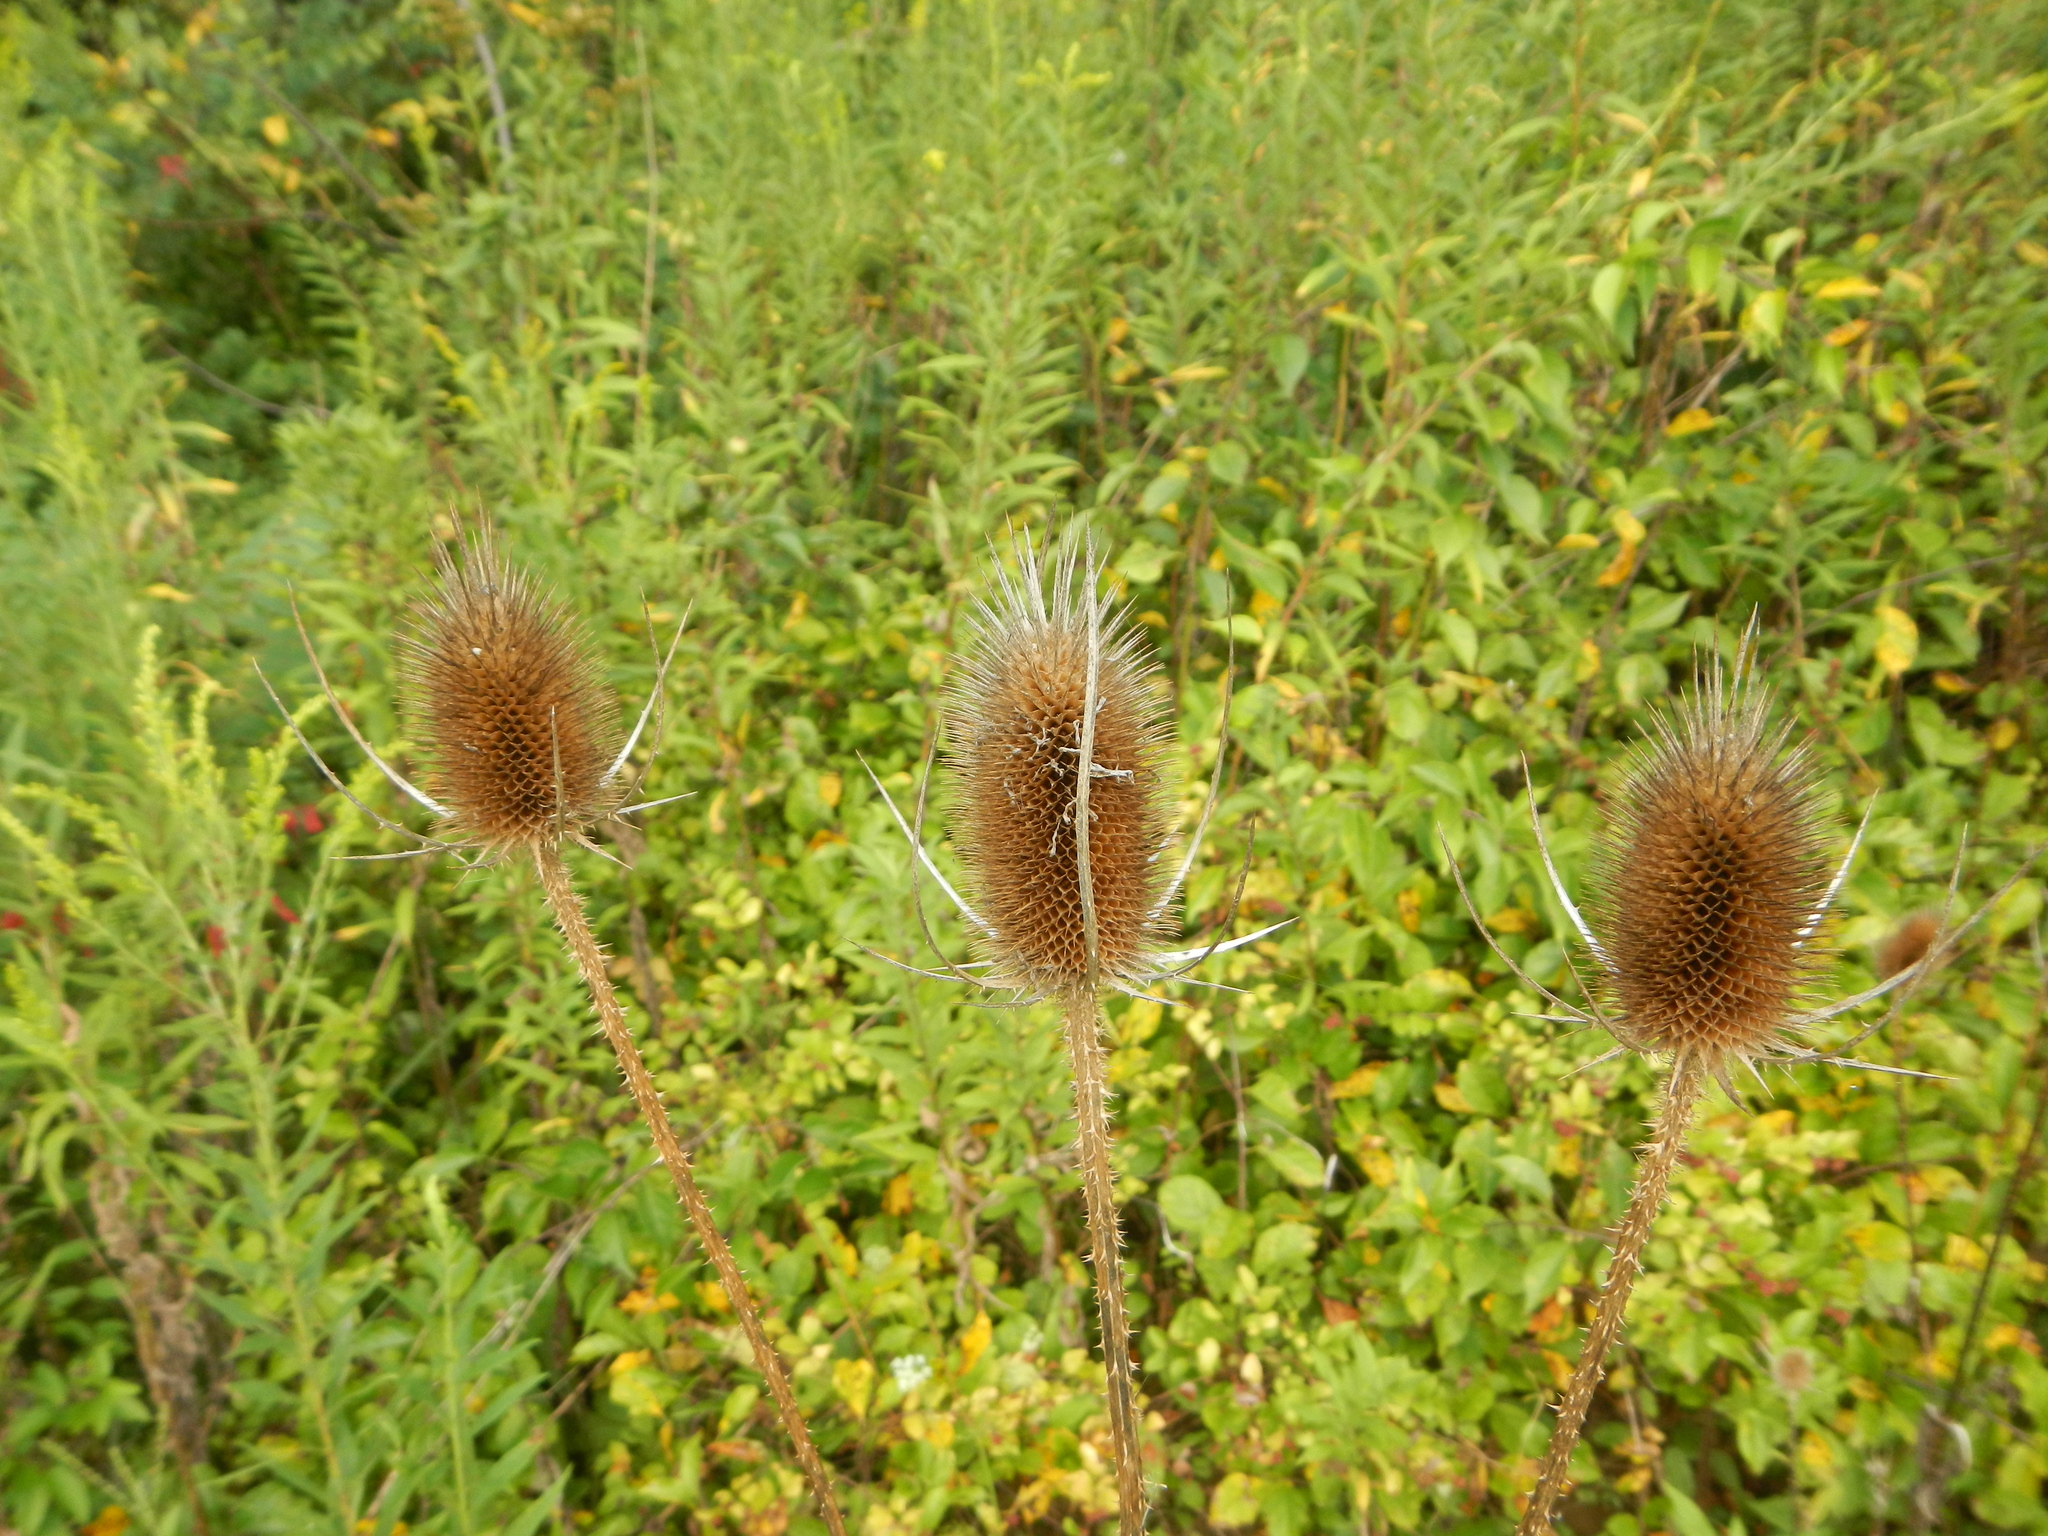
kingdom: Plantae
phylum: Tracheophyta
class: Magnoliopsida
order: Dipsacales
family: Caprifoliaceae
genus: Dipsacus
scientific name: Dipsacus fullonum
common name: Teasel
